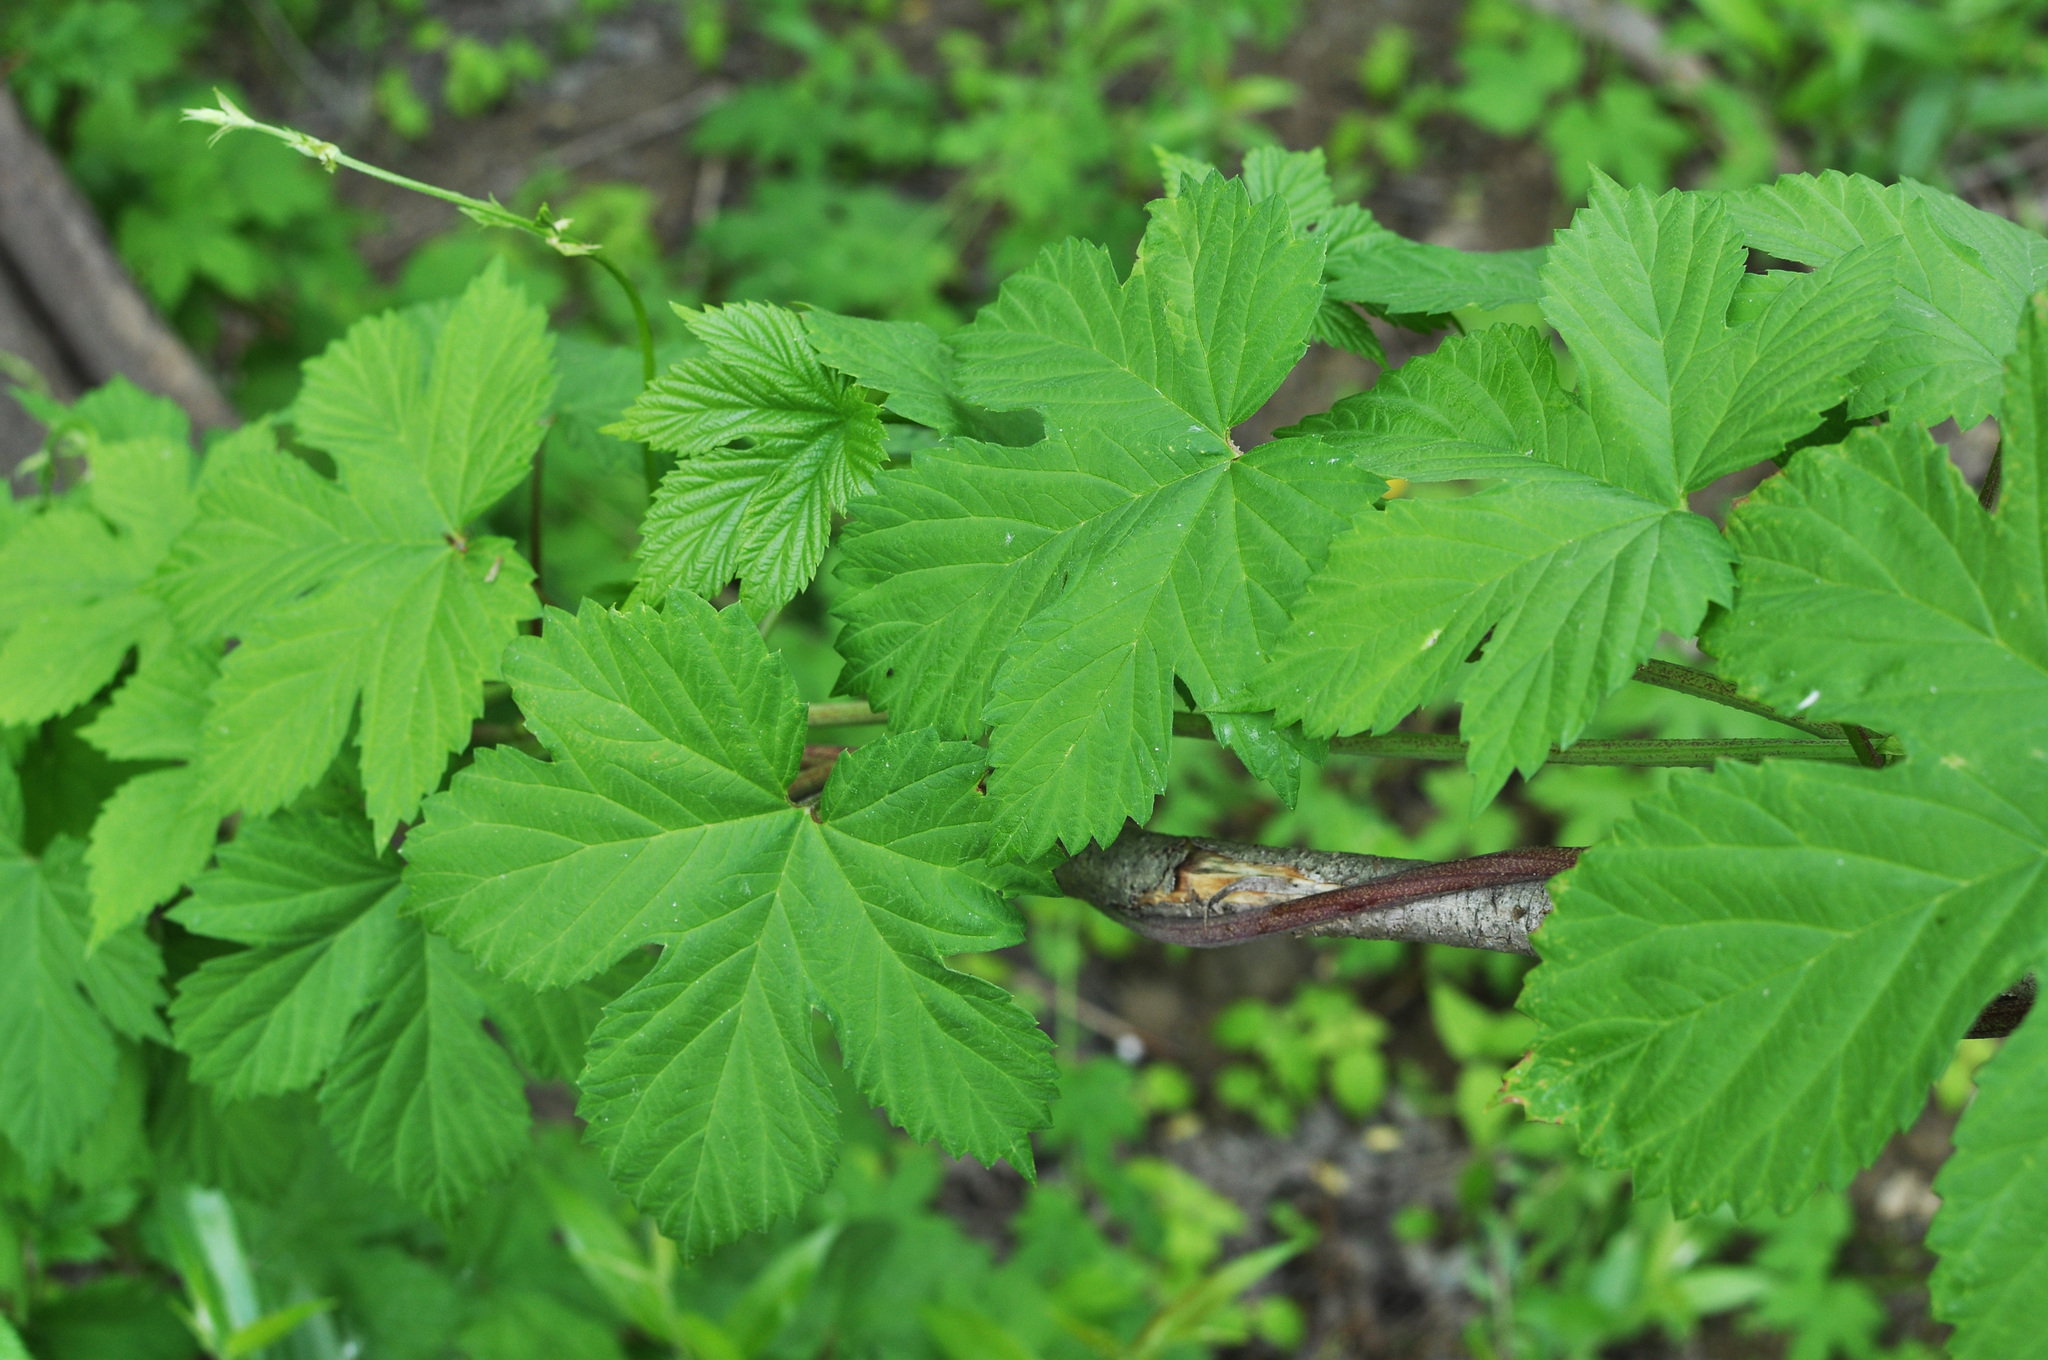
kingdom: Plantae
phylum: Tracheophyta
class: Magnoliopsida
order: Rosales
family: Cannabaceae
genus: Humulus
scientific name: Humulus lupulus
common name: Hop
